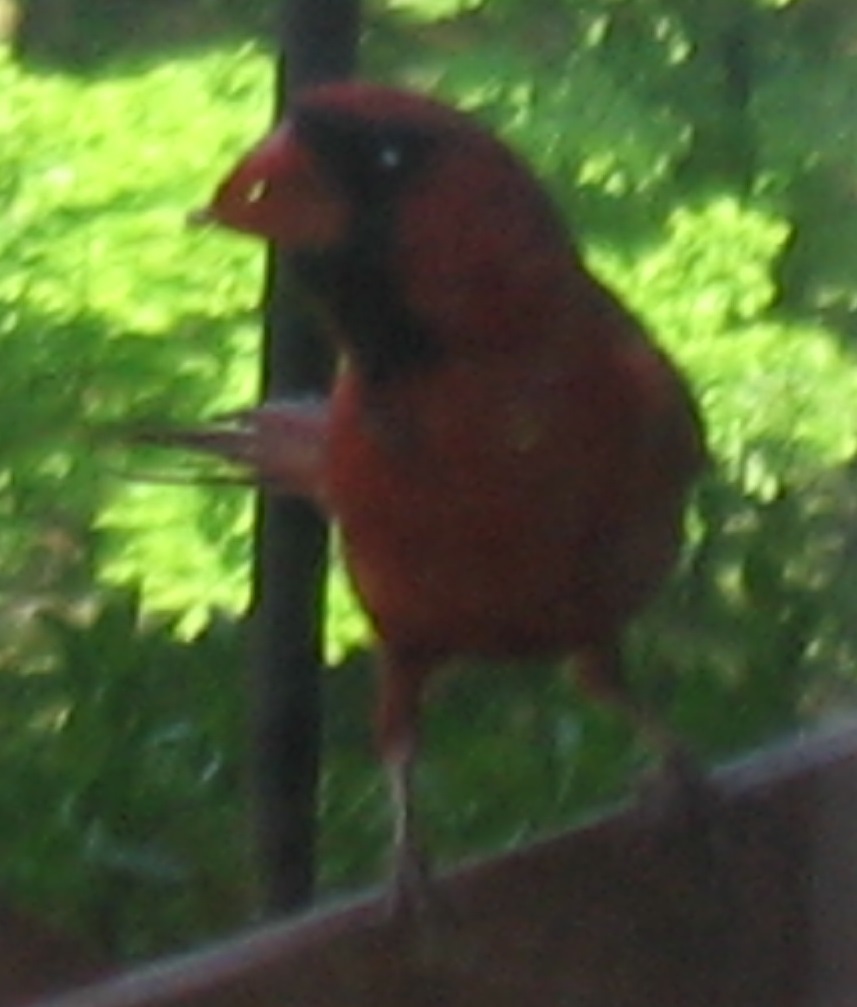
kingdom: Animalia
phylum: Chordata
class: Aves
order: Passeriformes
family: Cardinalidae
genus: Cardinalis
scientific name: Cardinalis cardinalis
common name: Northern cardinal
